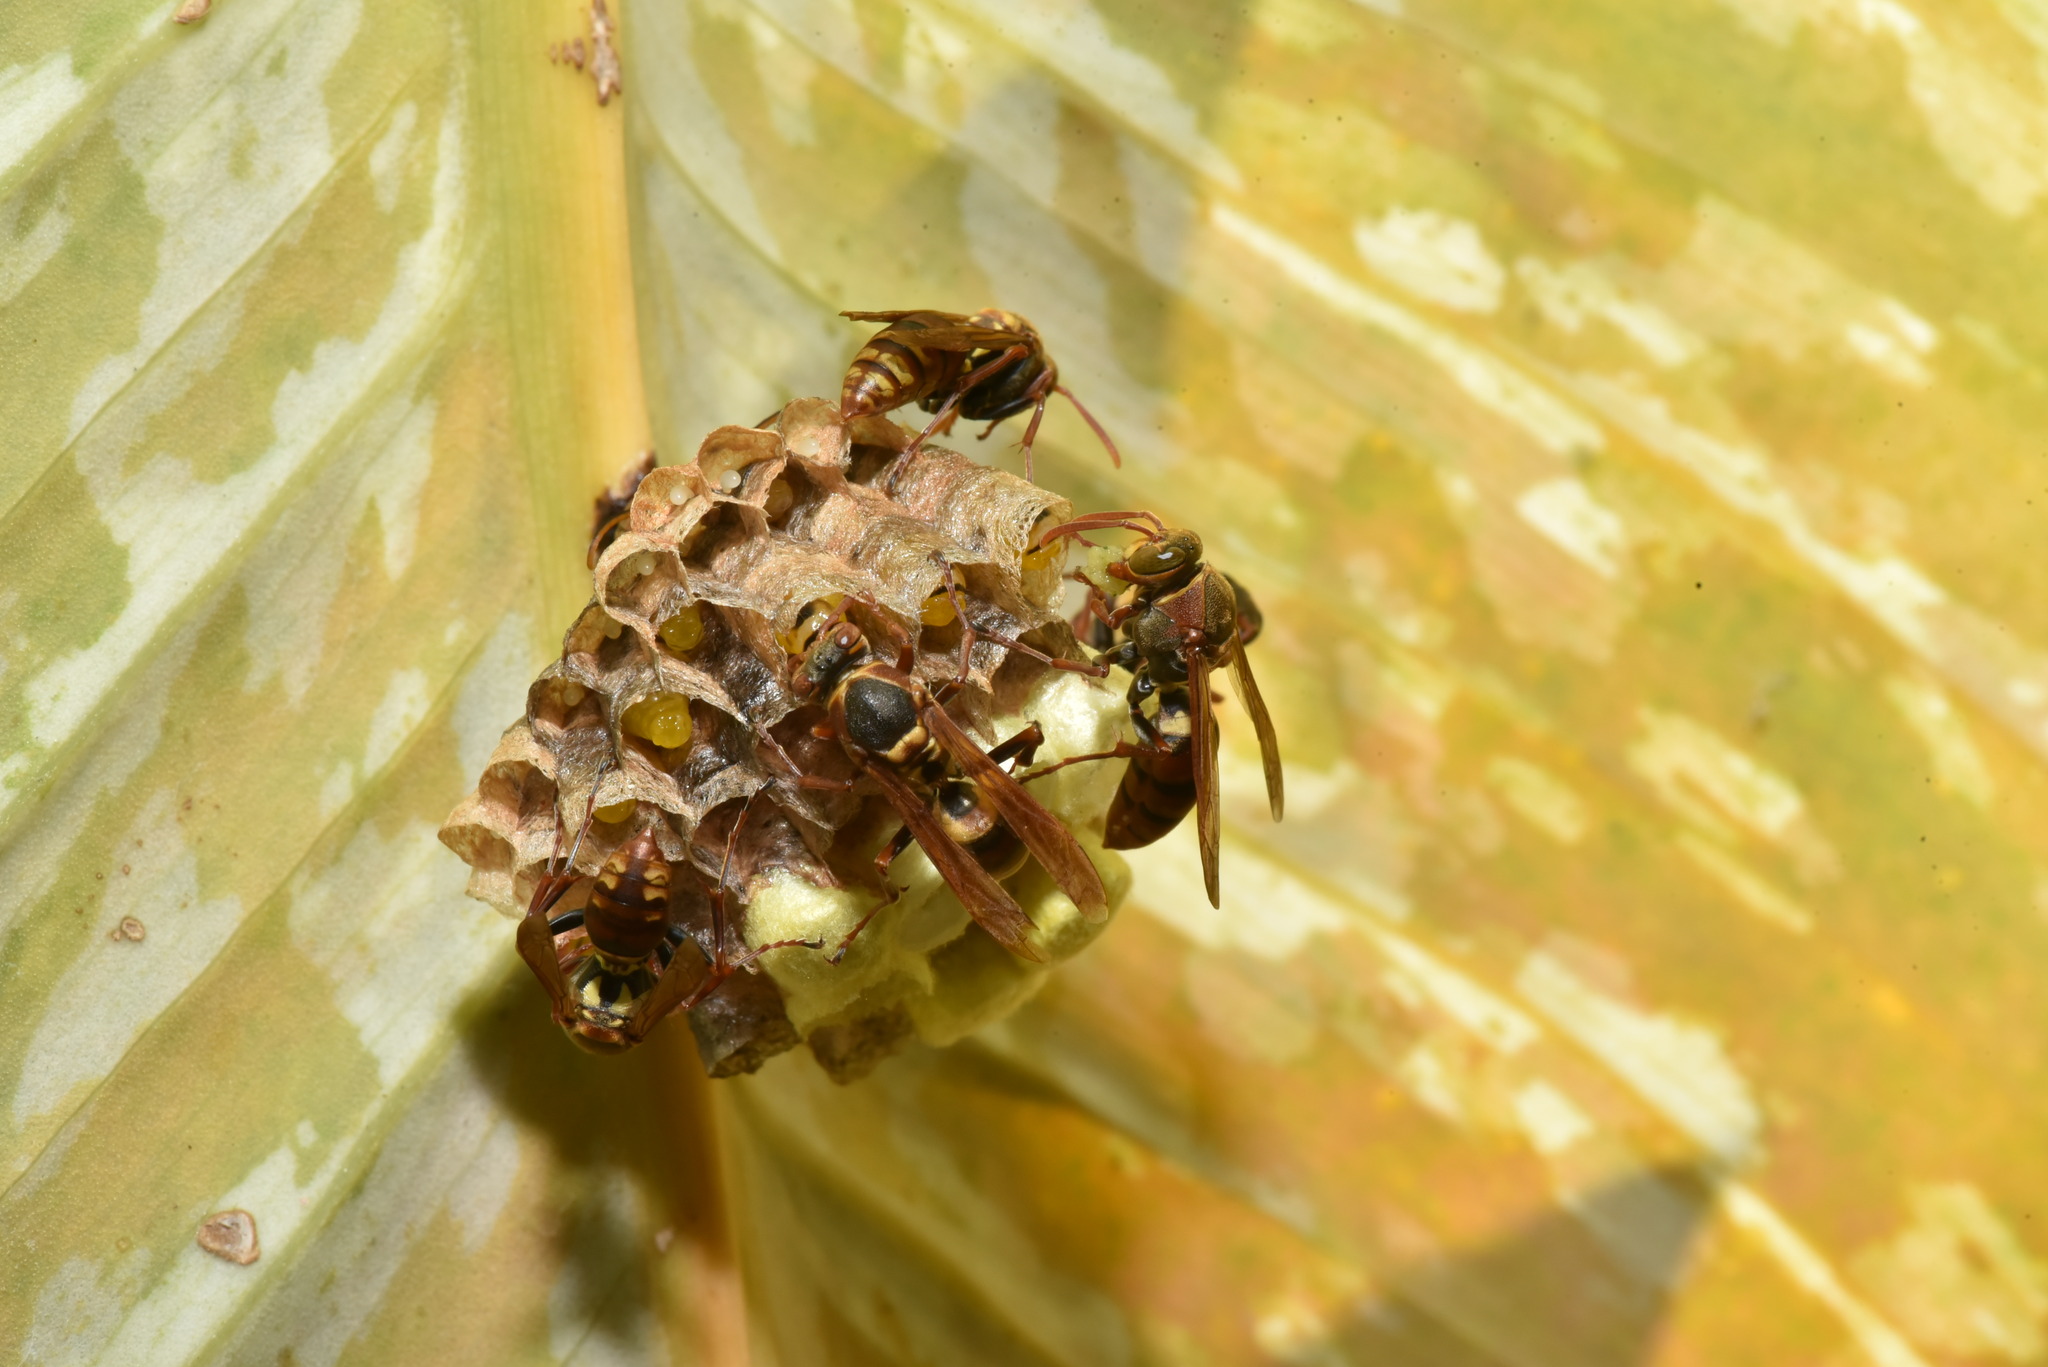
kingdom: Animalia
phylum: Arthropoda
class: Insecta
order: Hymenoptera
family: Eumenidae
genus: Polistes
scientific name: Polistes takasagonus
